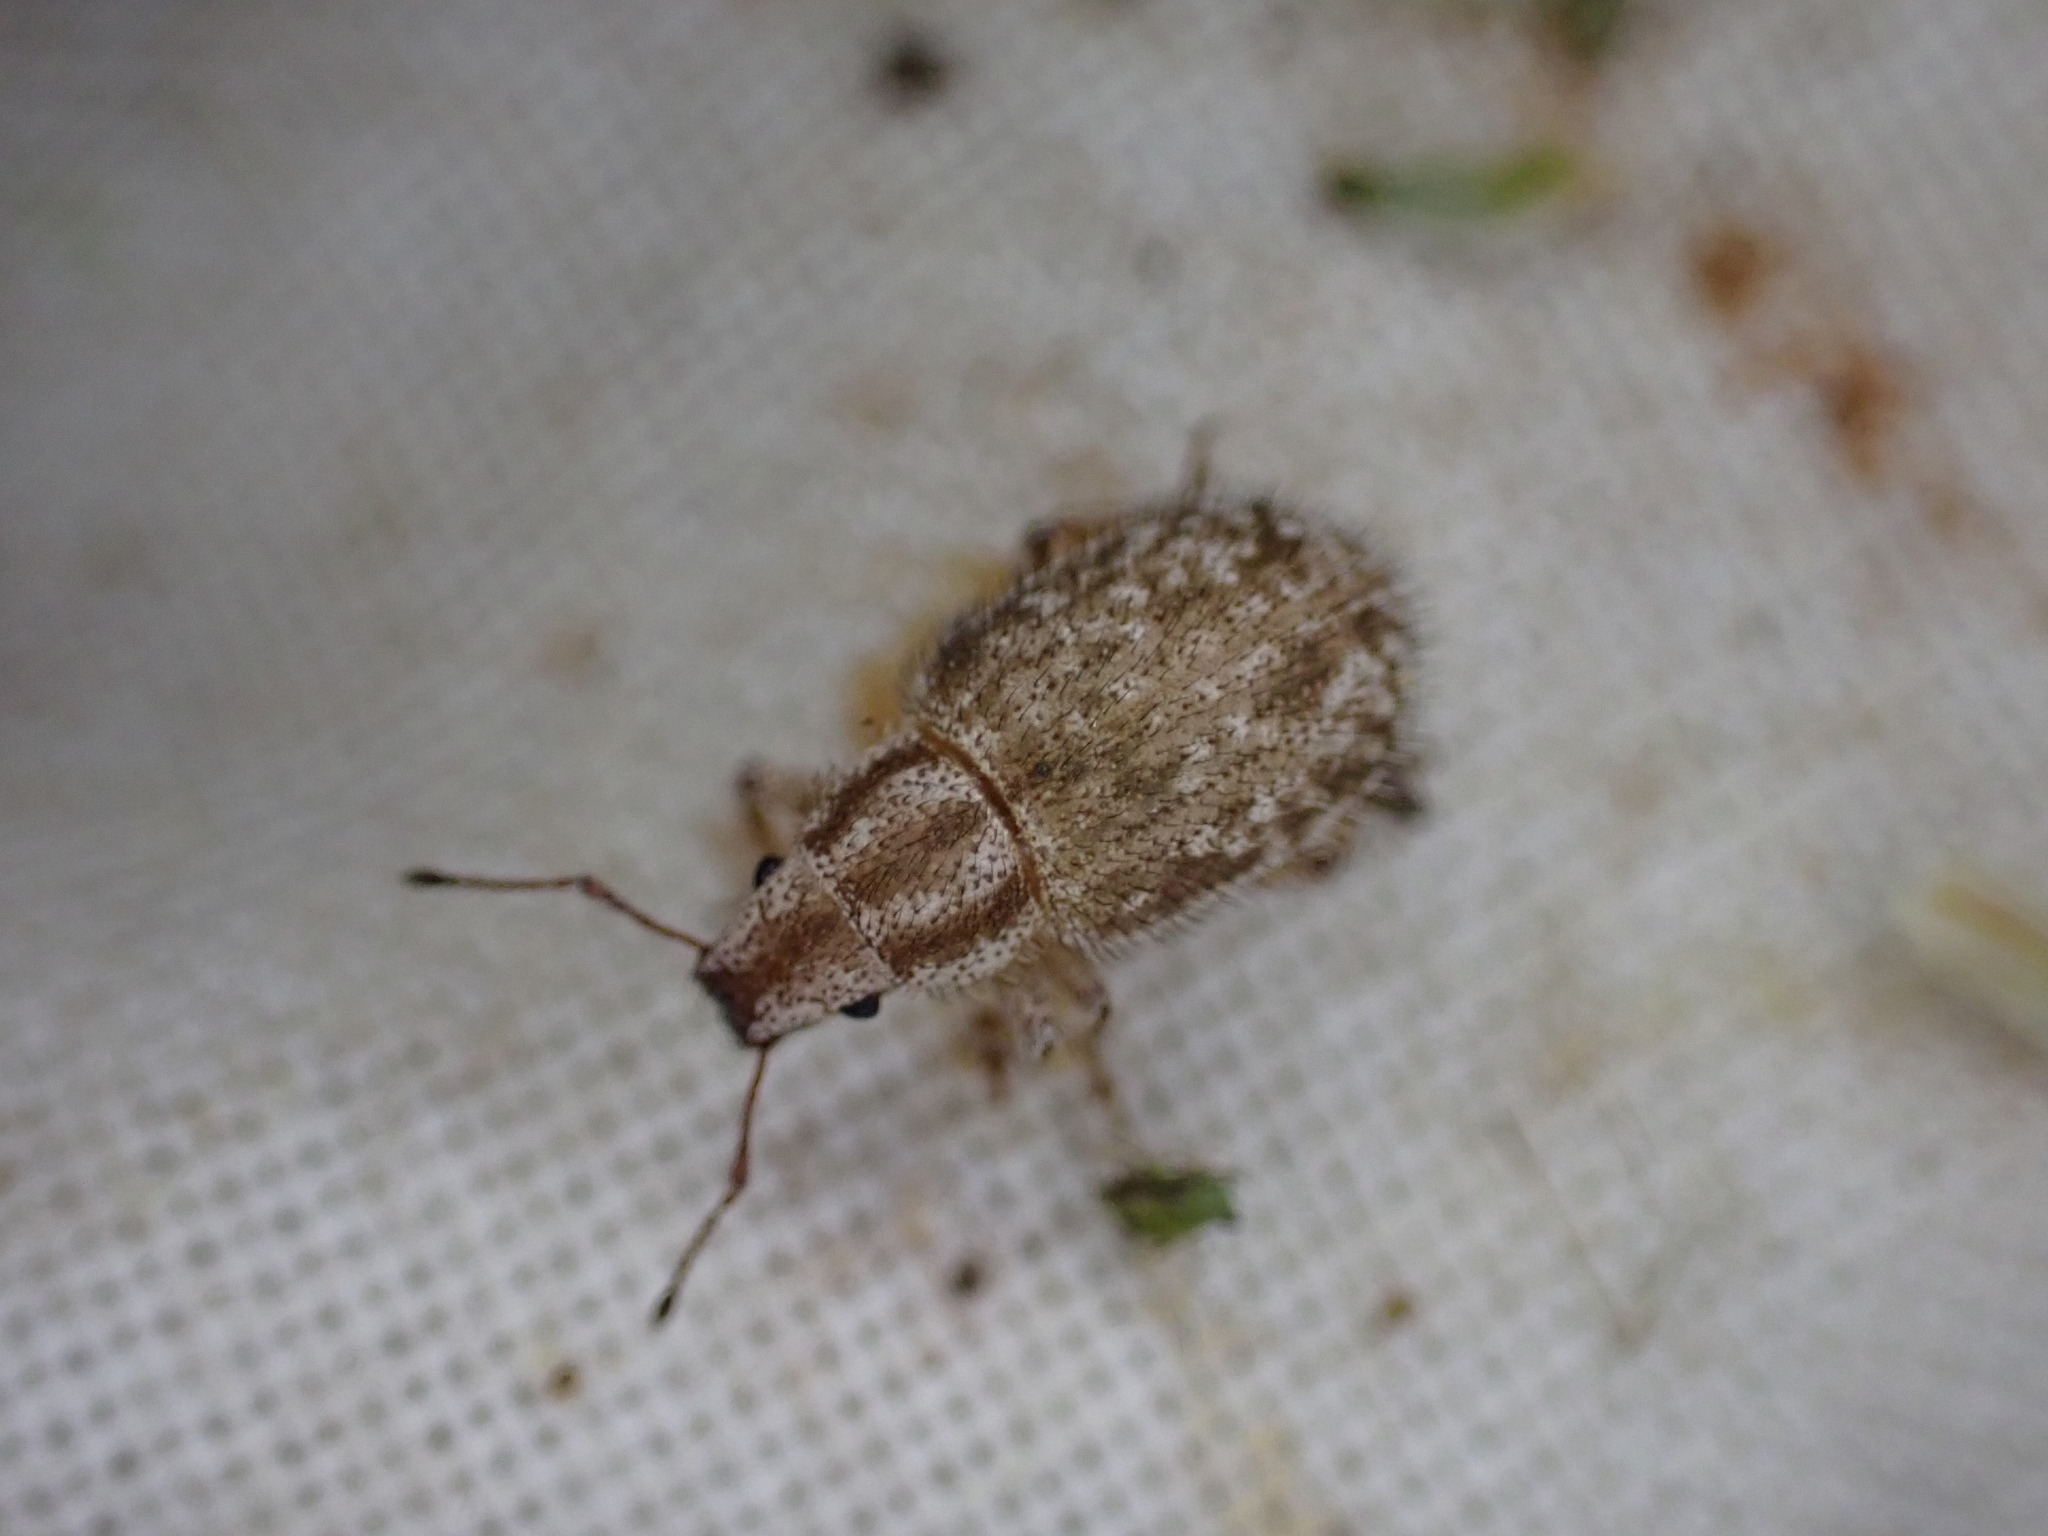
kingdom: Animalia
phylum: Arthropoda
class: Insecta
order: Coleoptera
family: Curculionidae
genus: Strophomorphus
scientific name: Strophomorphus porcellus
